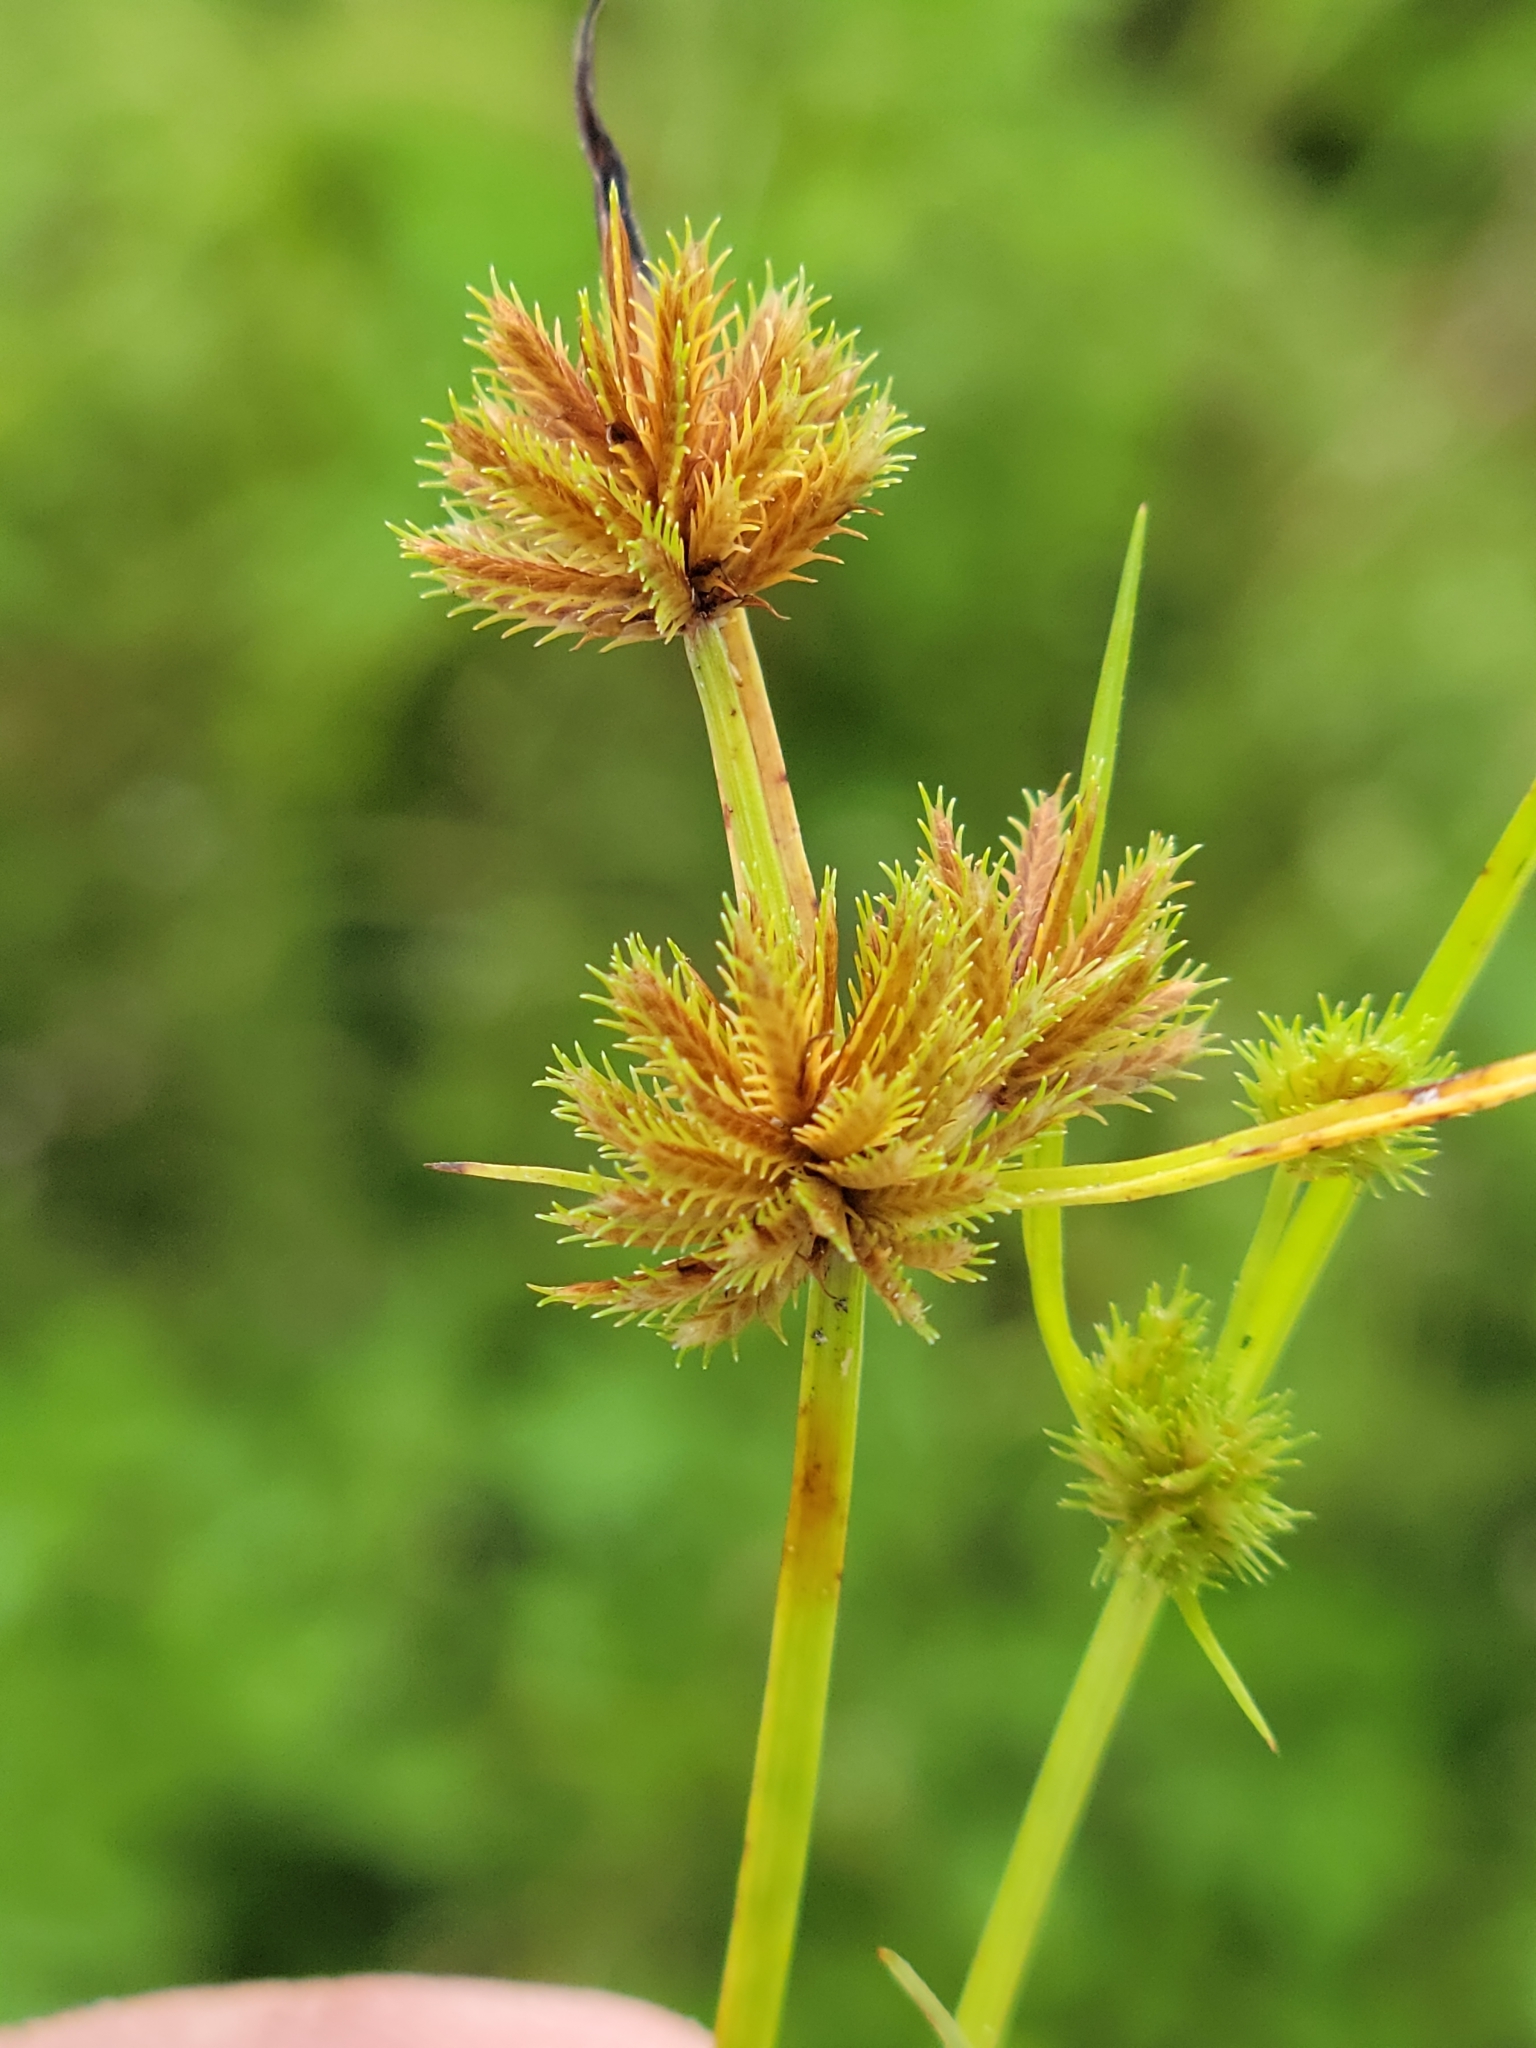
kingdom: Plantae
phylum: Tracheophyta
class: Liliopsida
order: Poales
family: Cyperaceae
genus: Cyperus
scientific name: Cyperus cuspidatus
